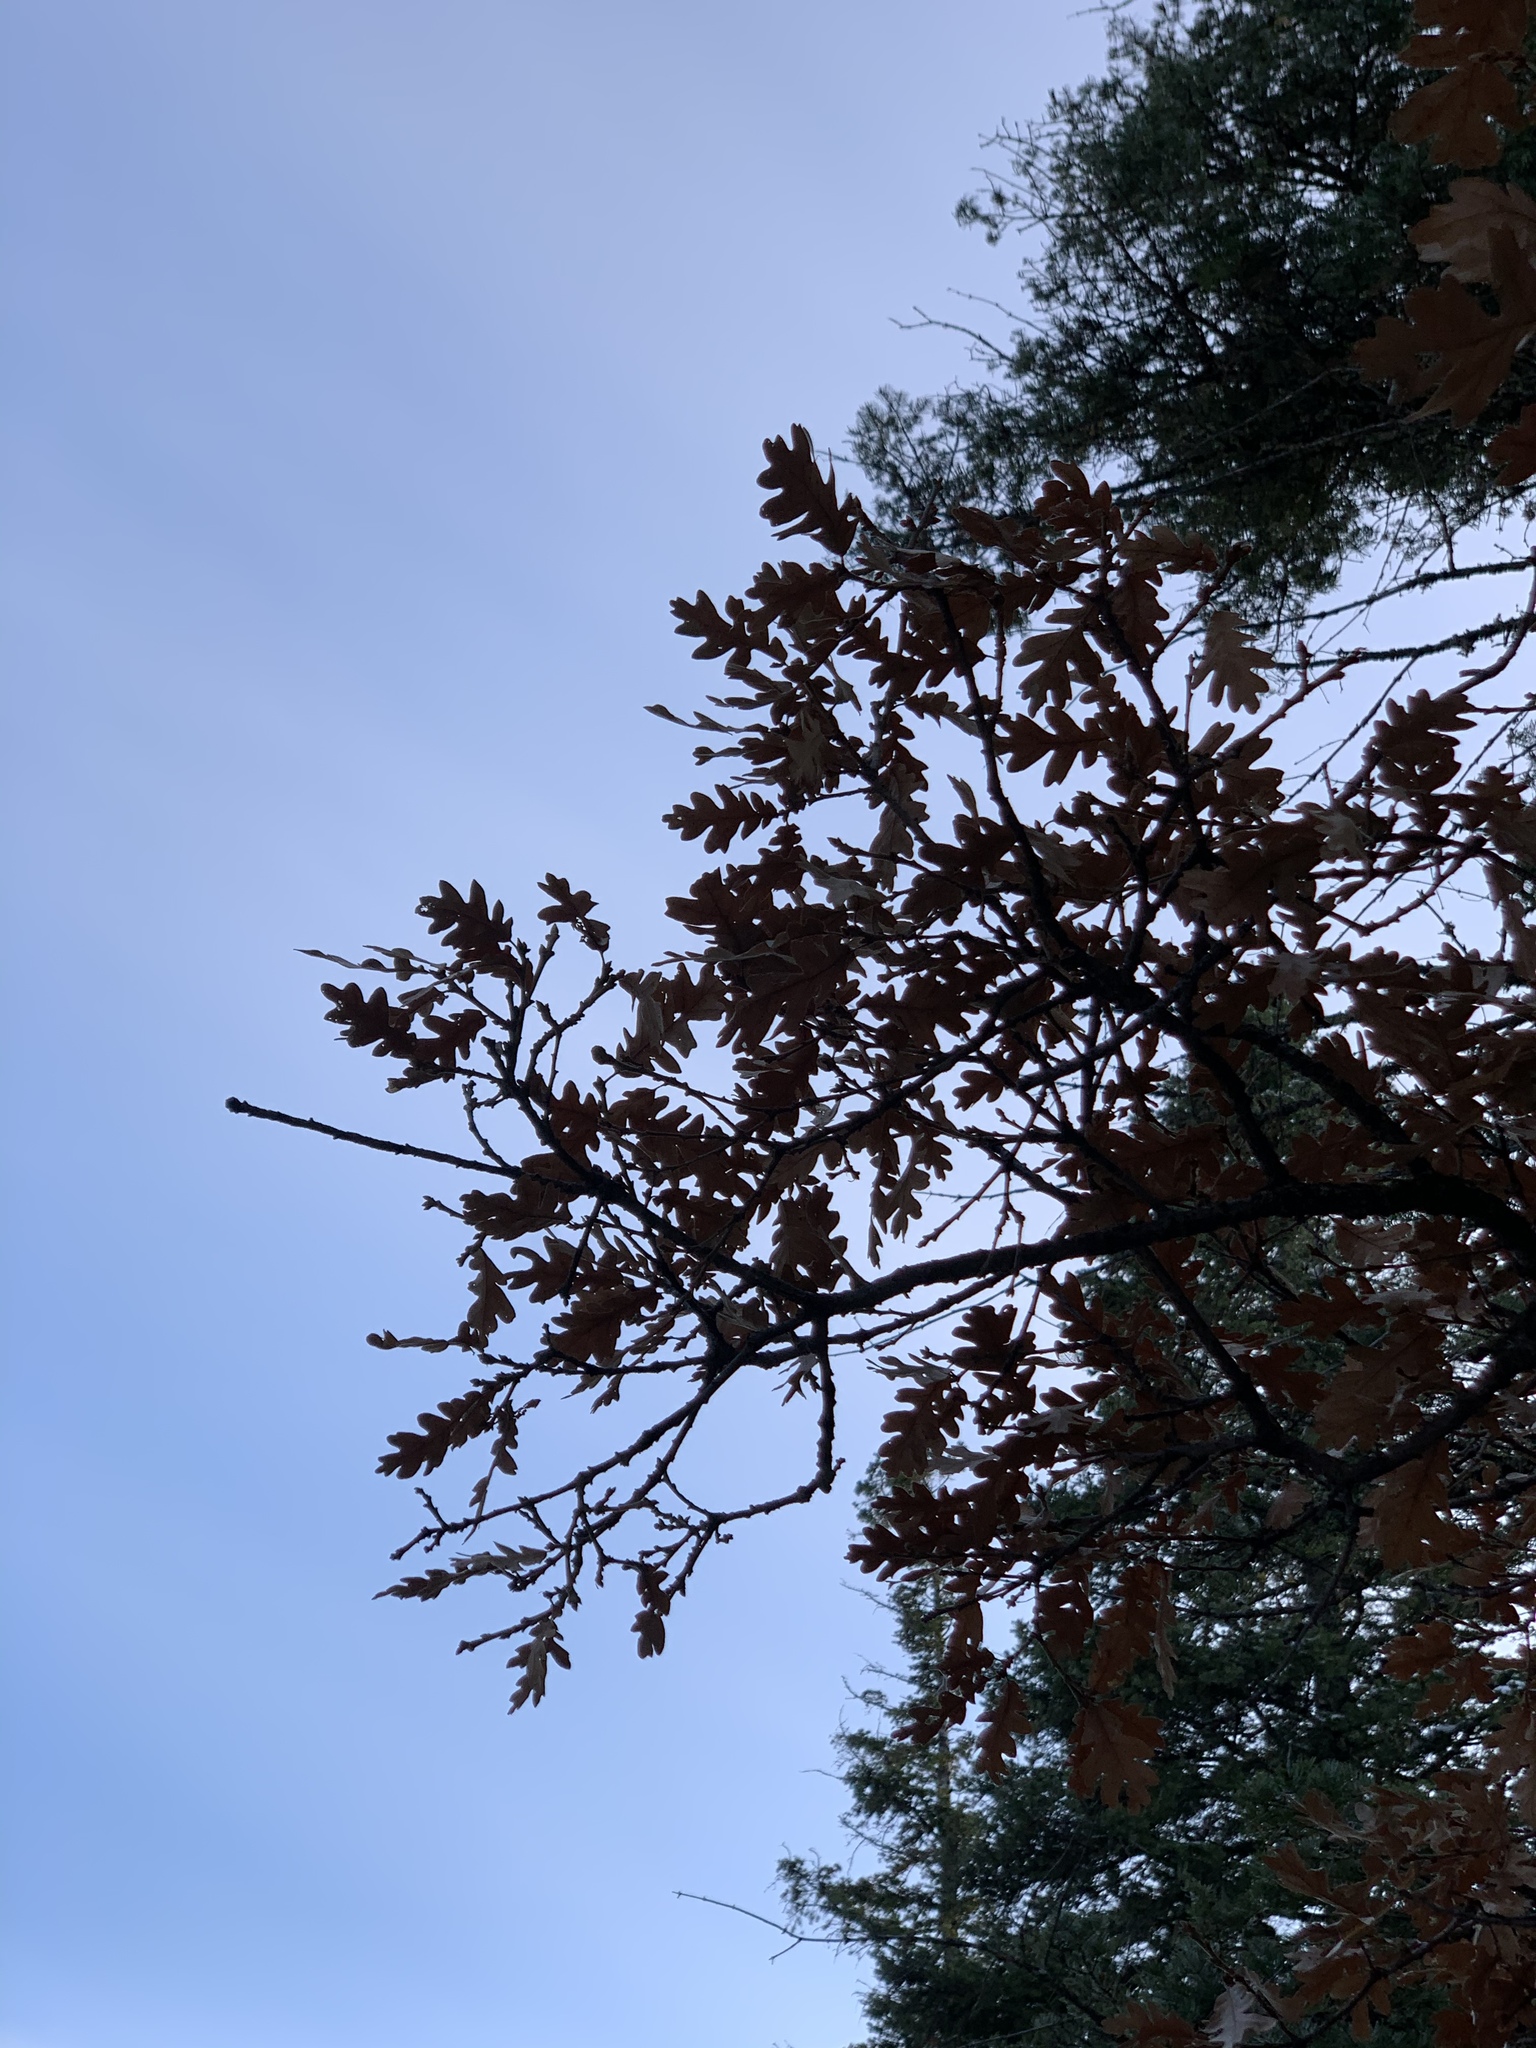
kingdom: Plantae
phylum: Tracheophyta
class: Magnoliopsida
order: Fagales
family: Fagaceae
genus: Quercus
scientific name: Quercus gambelii
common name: Gambel oak
